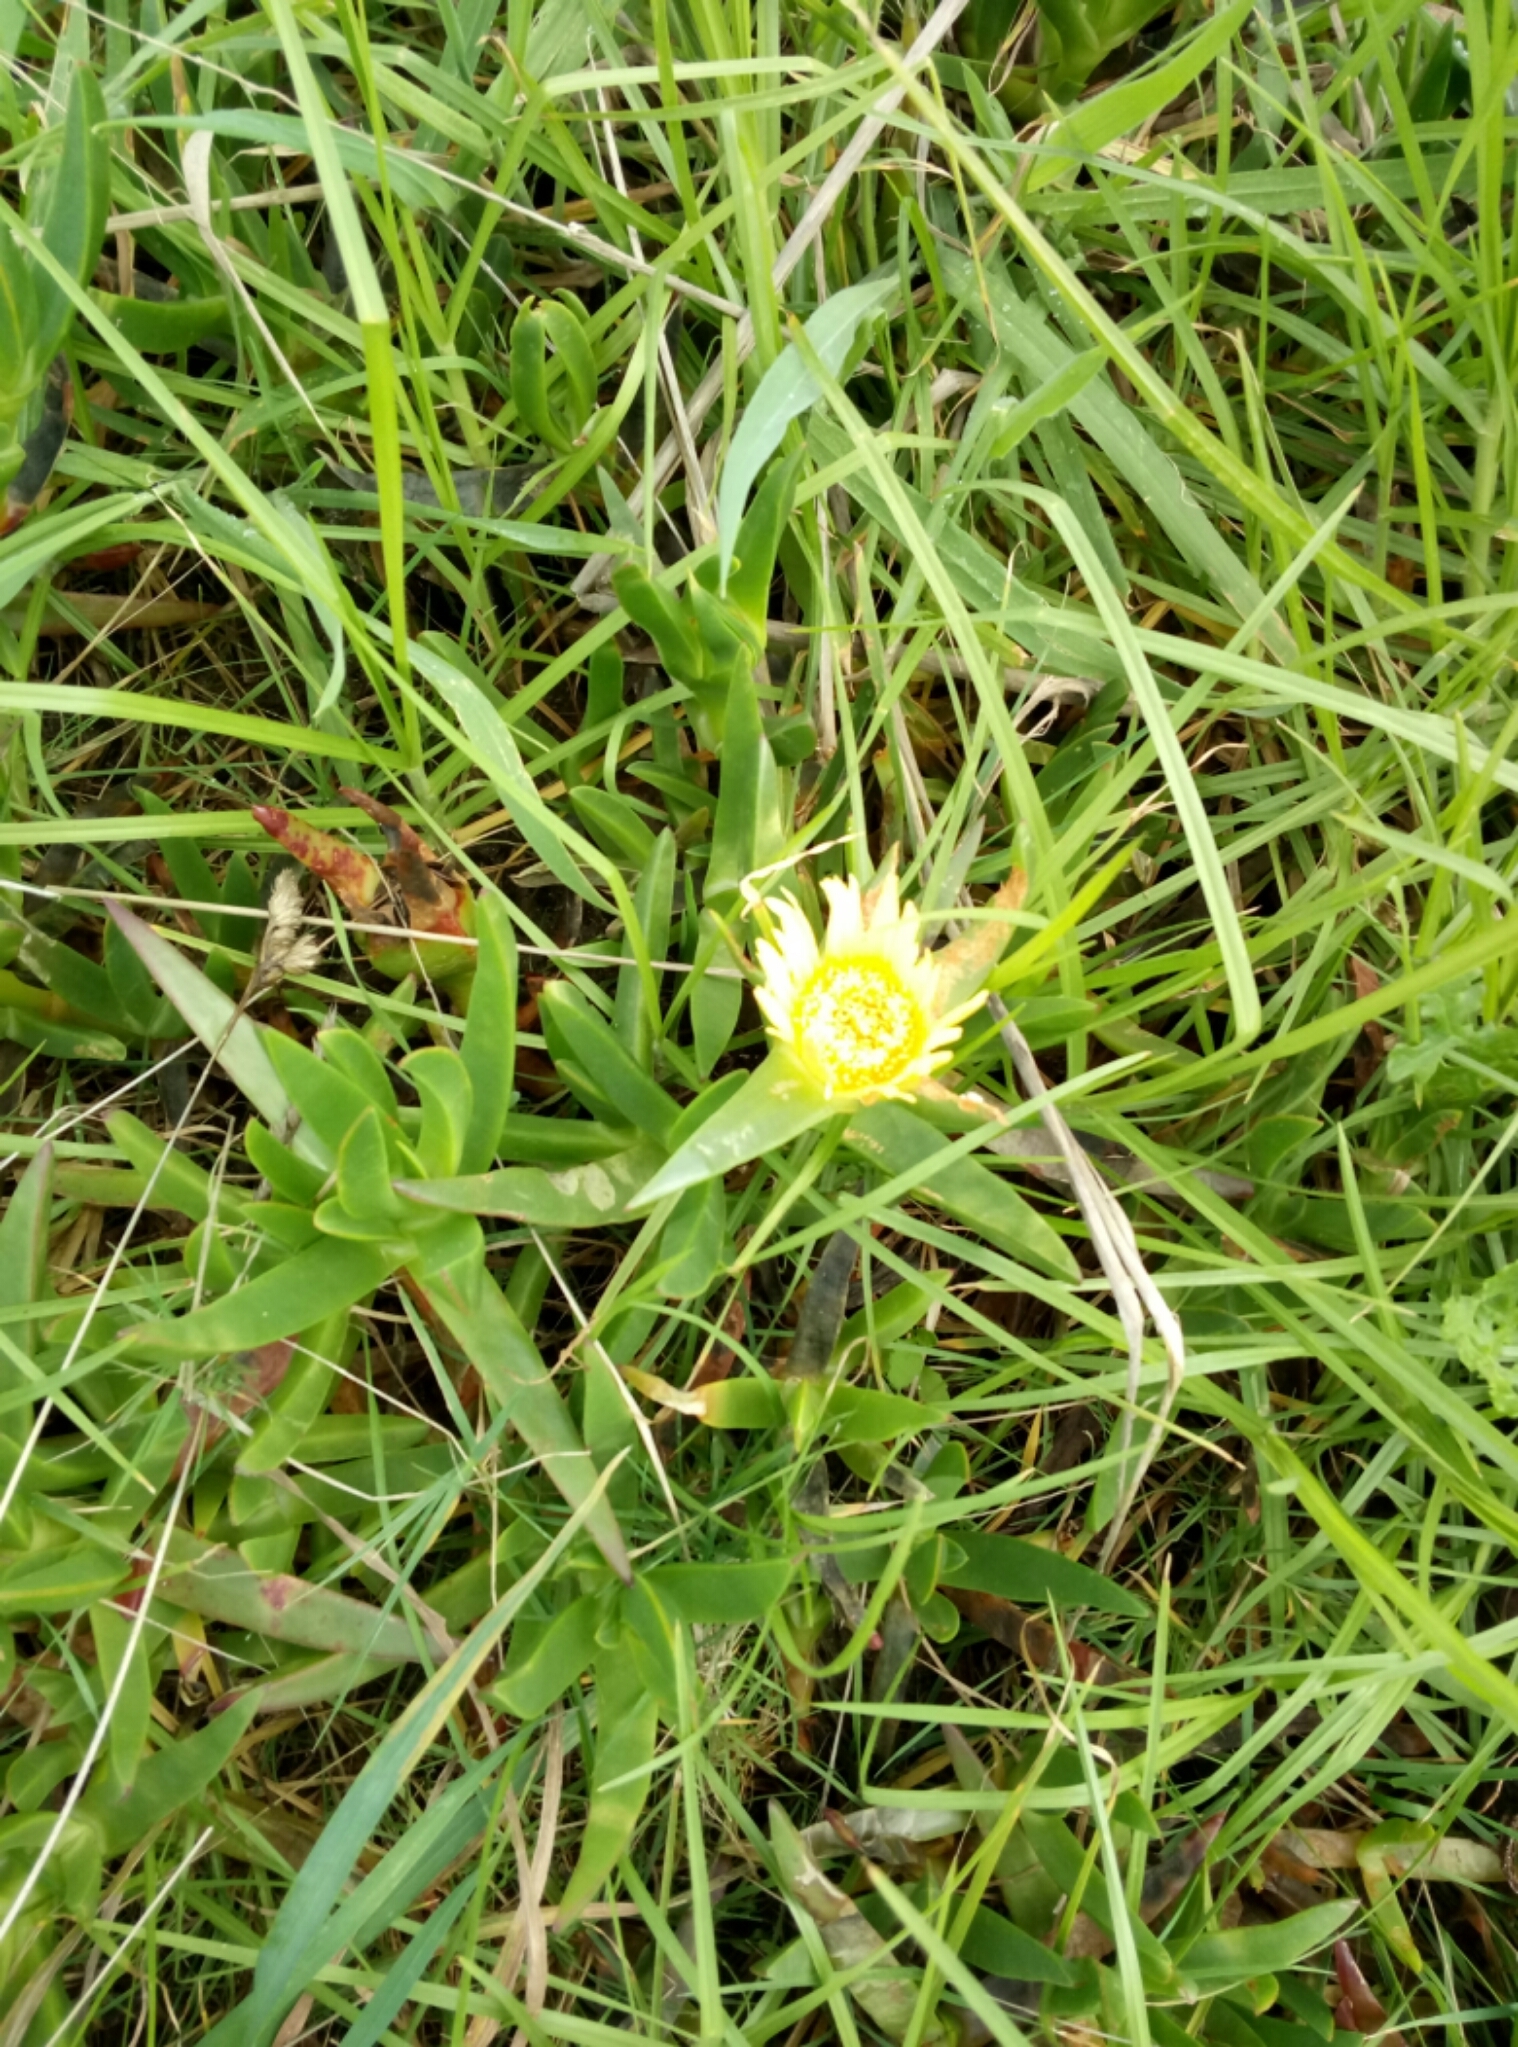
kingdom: Plantae
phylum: Tracheophyta
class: Magnoliopsida
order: Caryophyllales
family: Aizoaceae
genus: Carpobrotus
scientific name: Carpobrotus edulis
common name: Hottentot-fig
